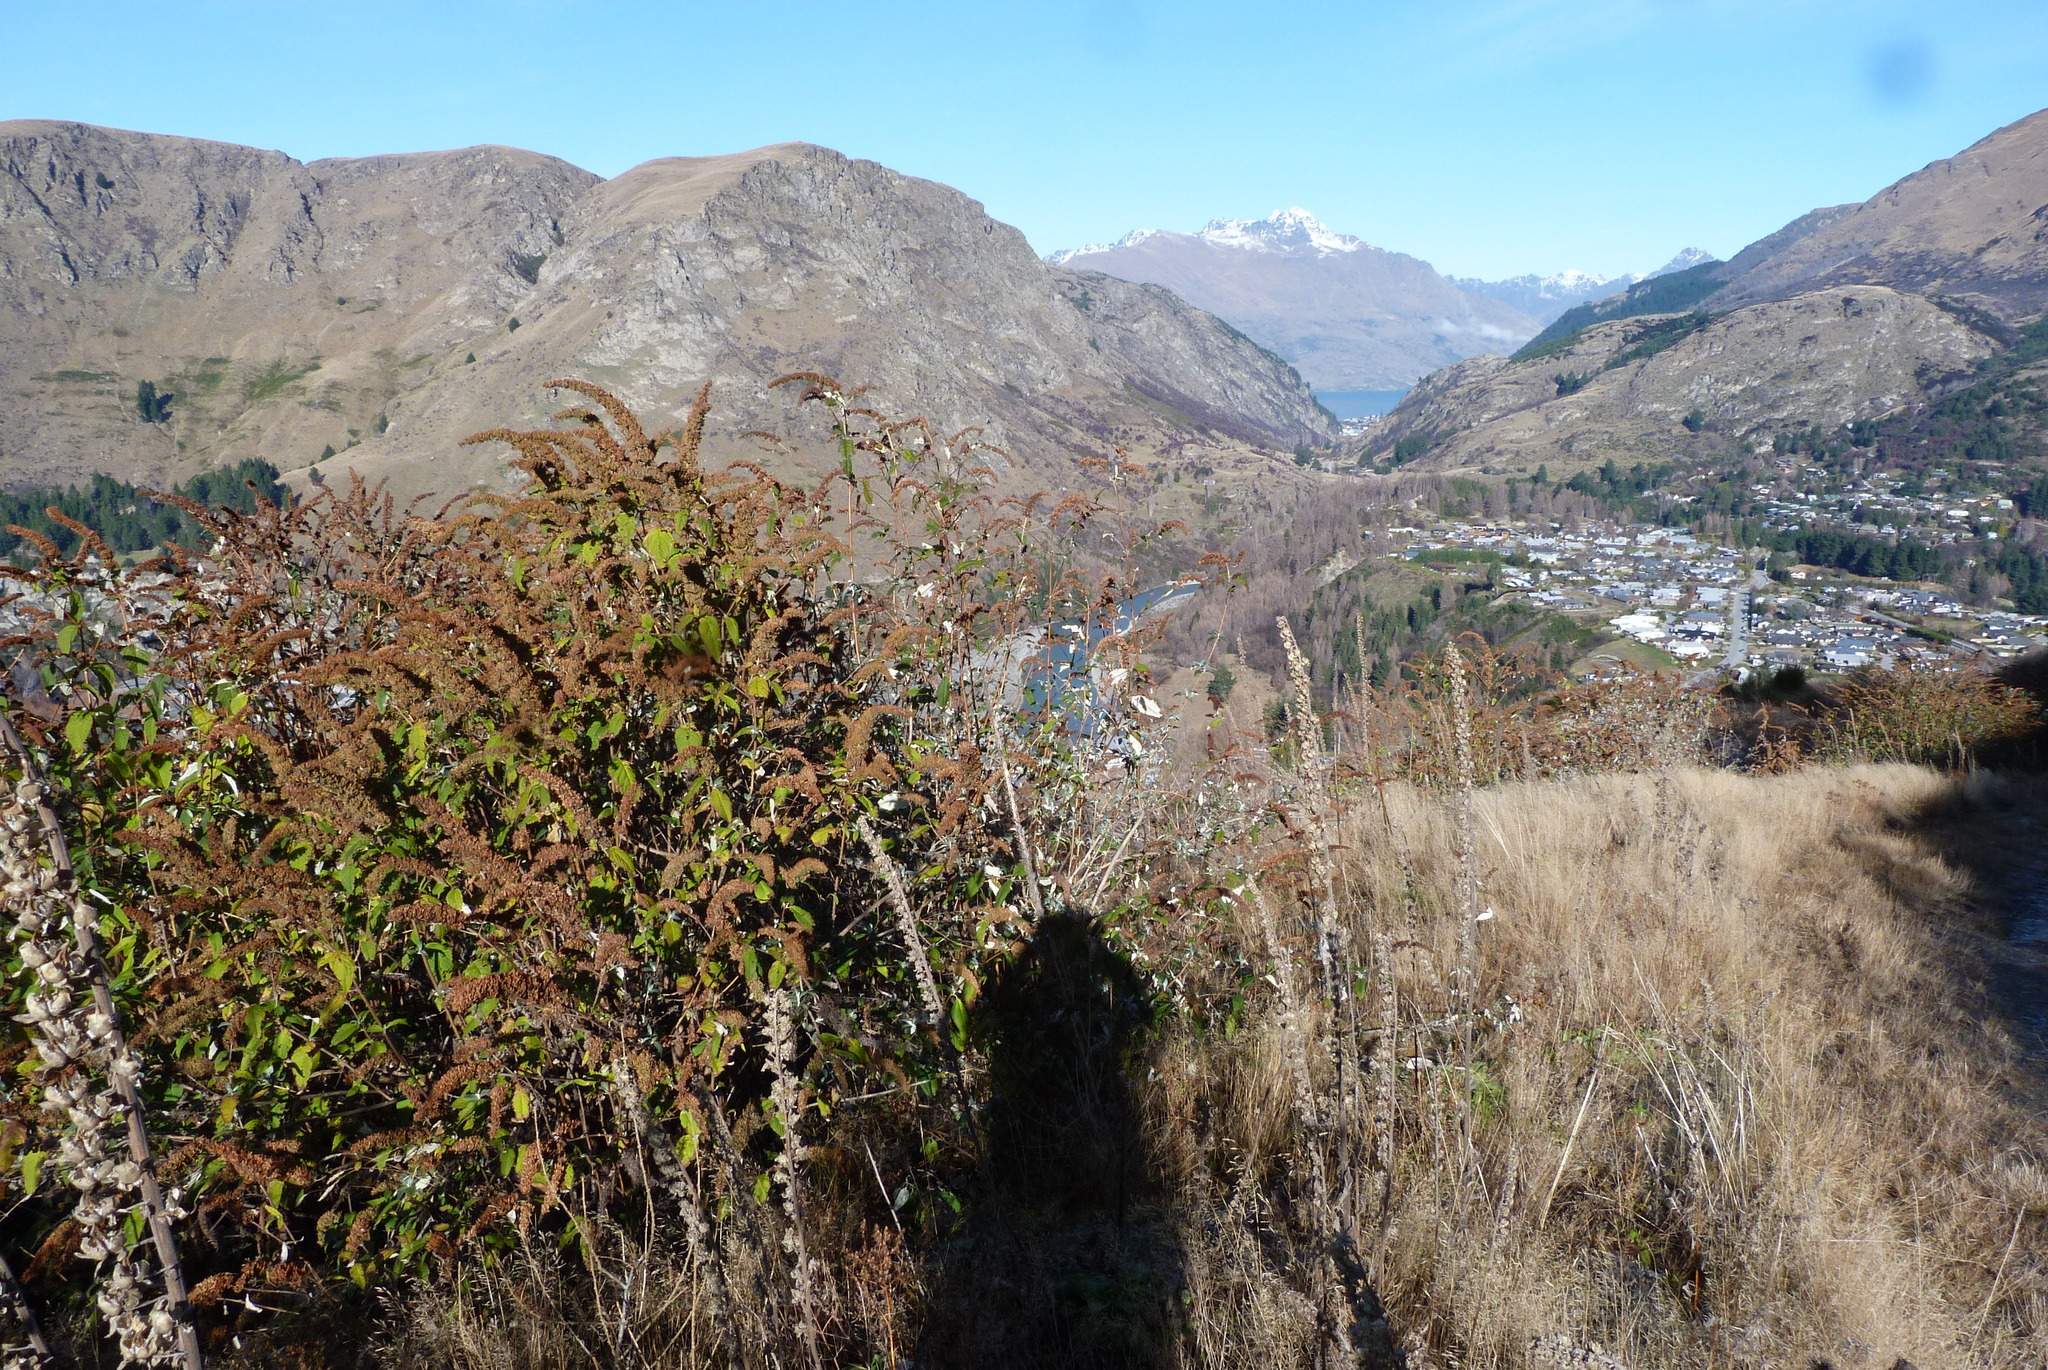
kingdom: Plantae
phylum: Tracheophyta
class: Magnoliopsida
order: Lamiales
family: Scrophulariaceae
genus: Buddleja
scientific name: Buddleja davidii
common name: Butterfly-bush
